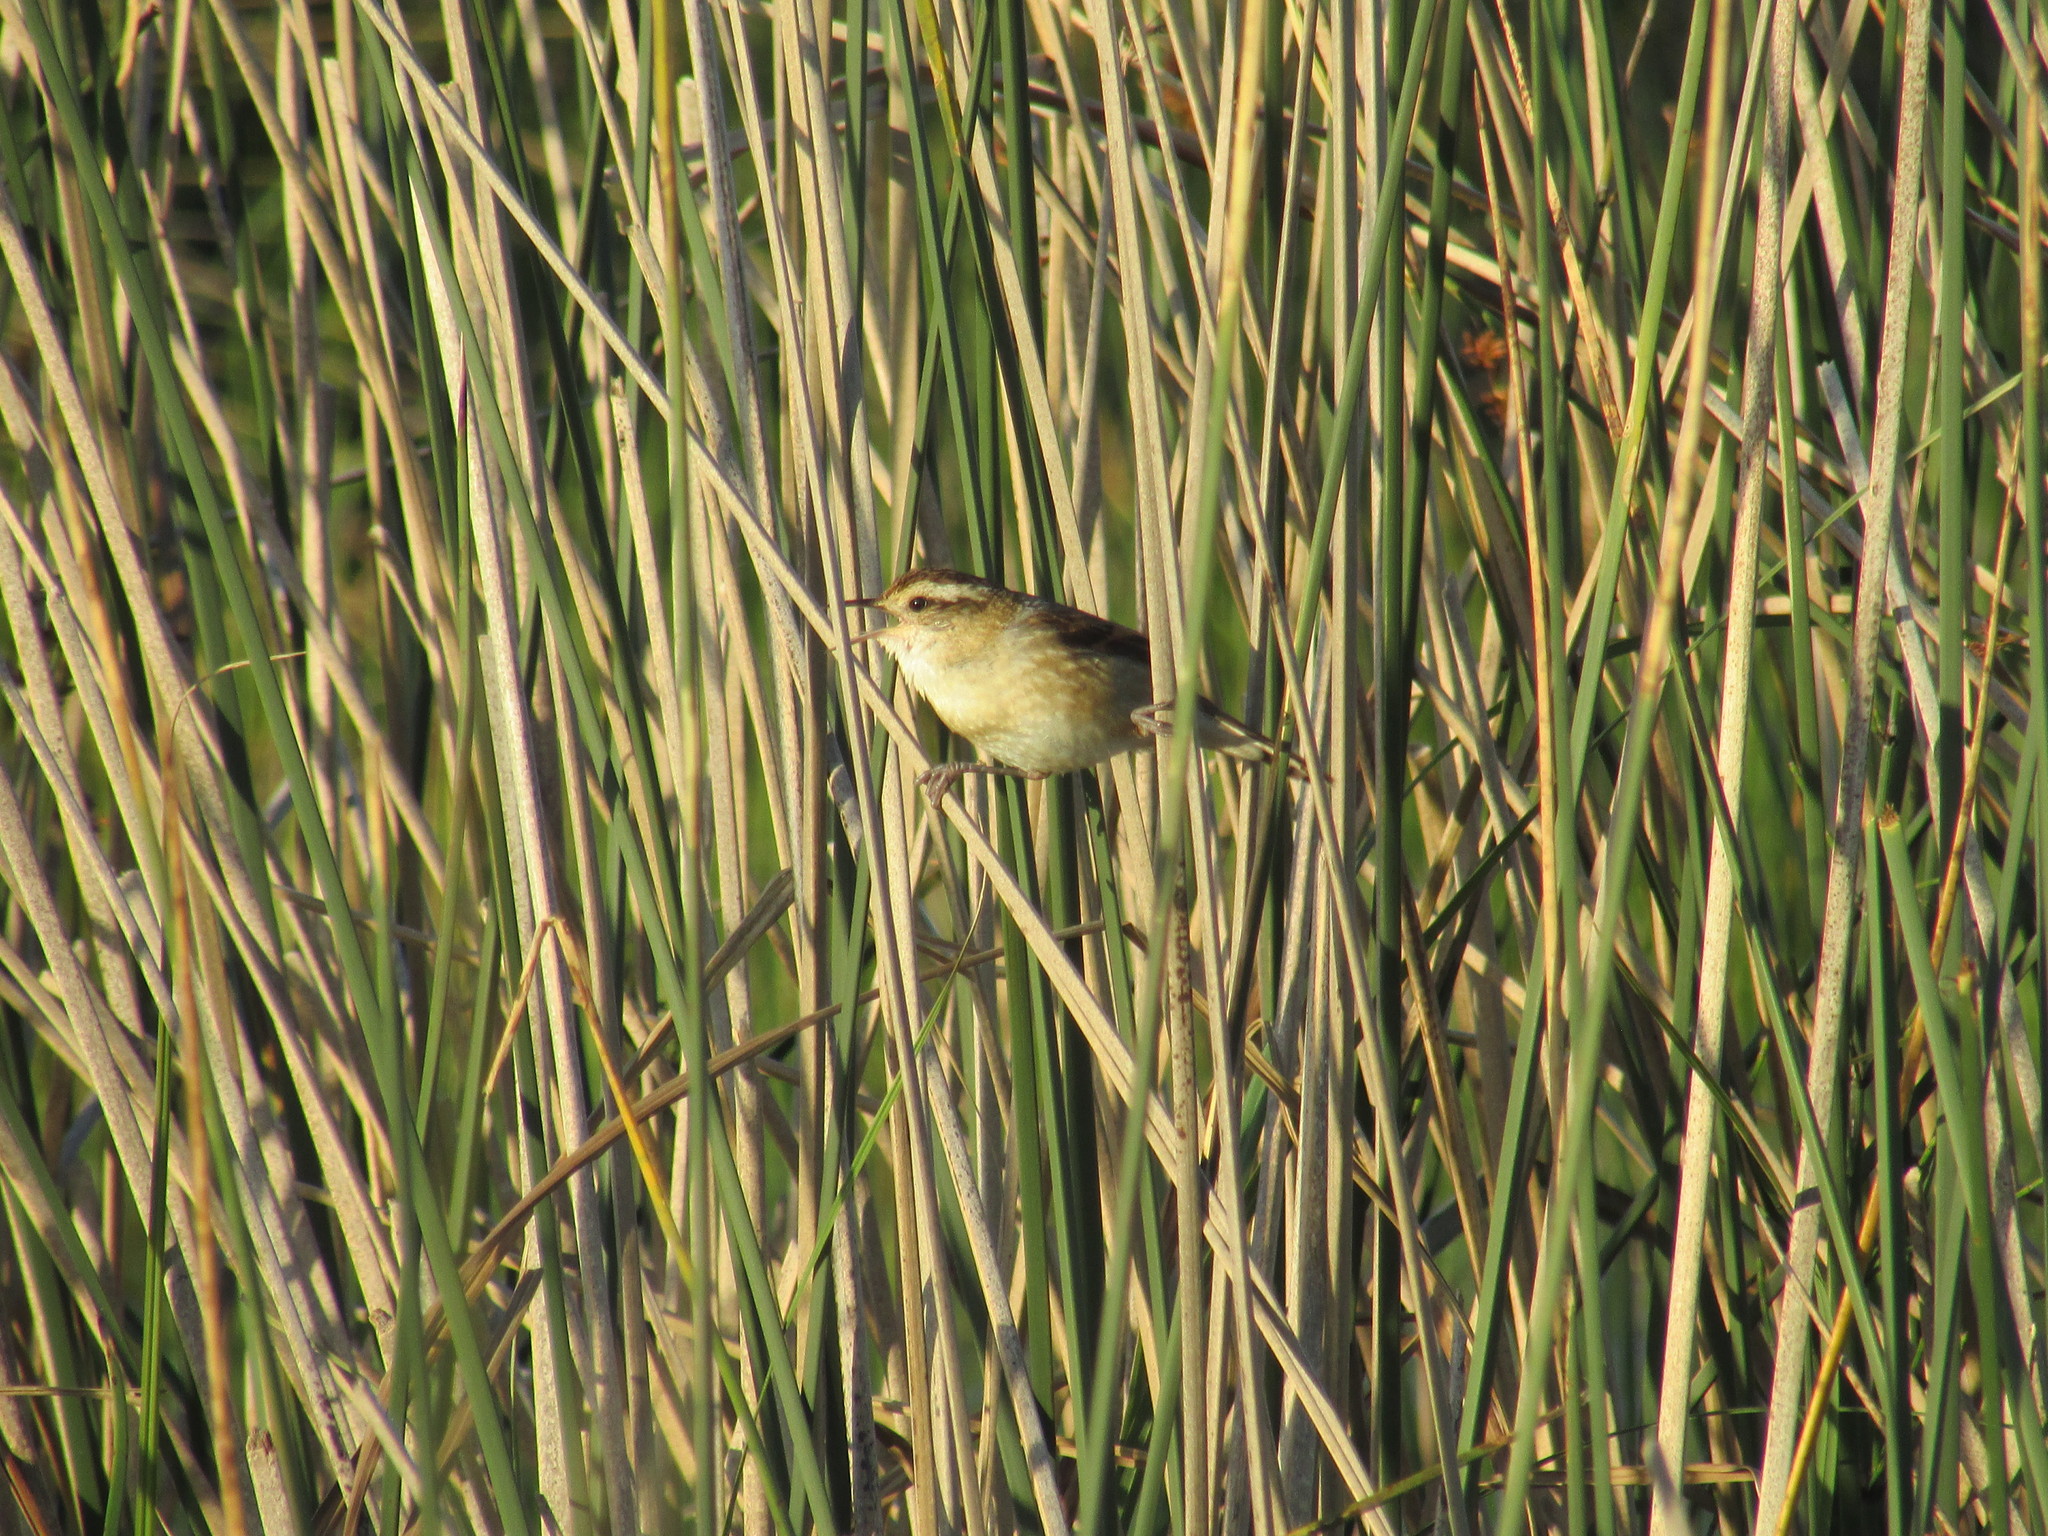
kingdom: Animalia
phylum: Chordata
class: Aves
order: Passeriformes
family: Troglodytidae
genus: Cistothorus
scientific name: Cistothorus platensis
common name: Sedge wren
